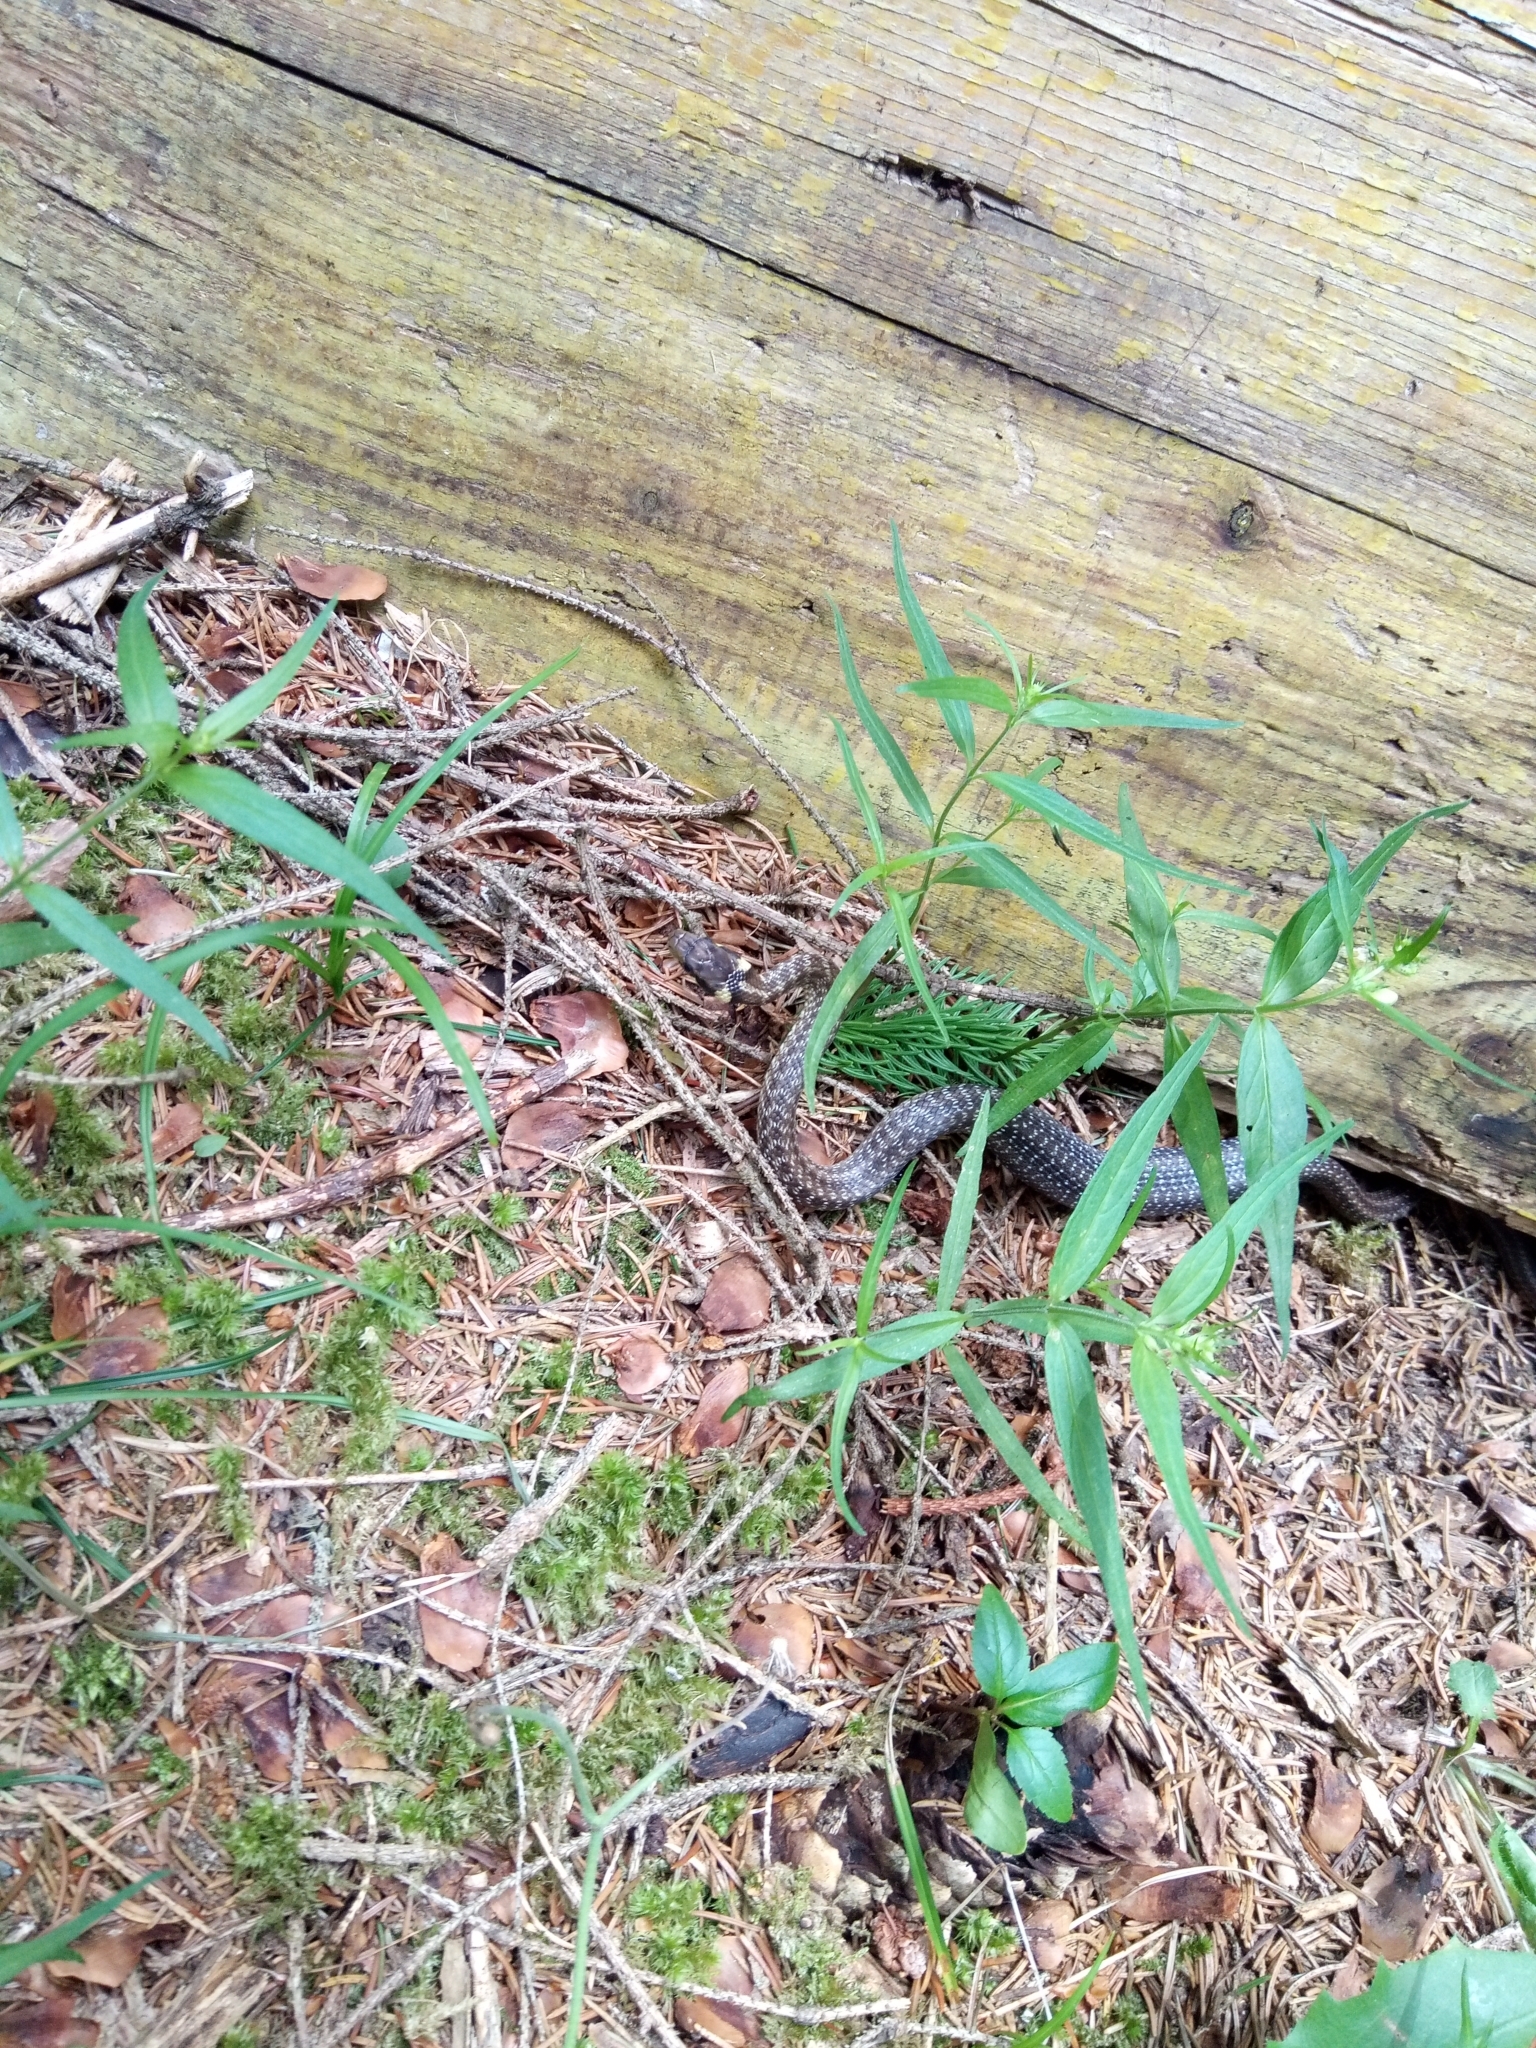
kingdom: Animalia
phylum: Chordata
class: Squamata
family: Colubridae
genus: Zamenis
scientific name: Zamenis longissimus
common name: Aesculapean snake
